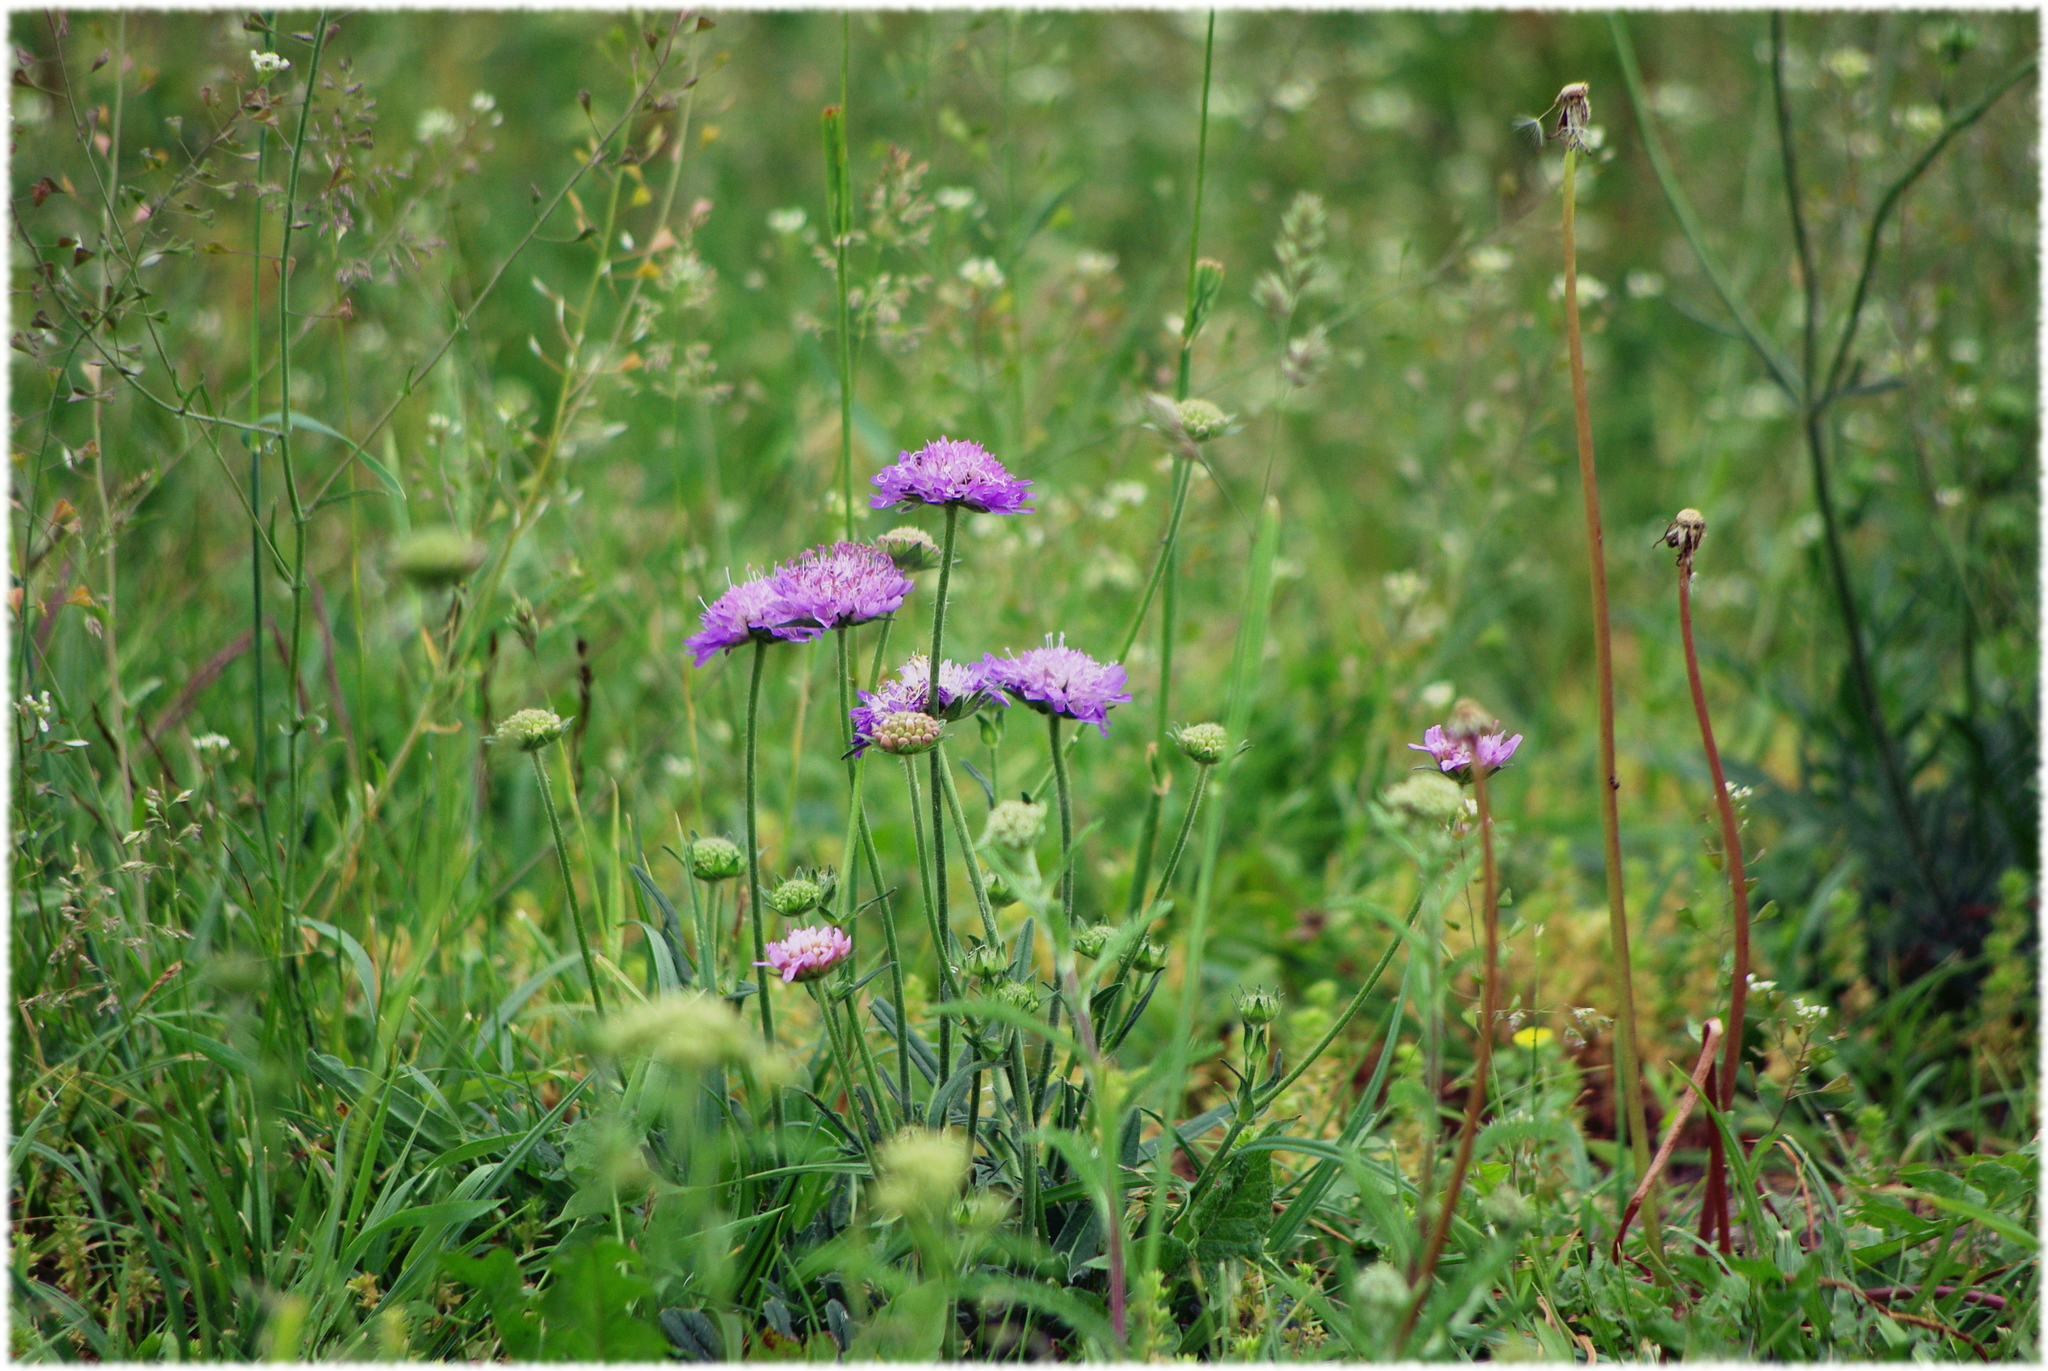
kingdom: Plantae
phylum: Tracheophyta
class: Magnoliopsida
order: Dipsacales
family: Caprifoliaceae
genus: Knautia
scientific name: Knautia arvensis
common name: Field scabiosa
